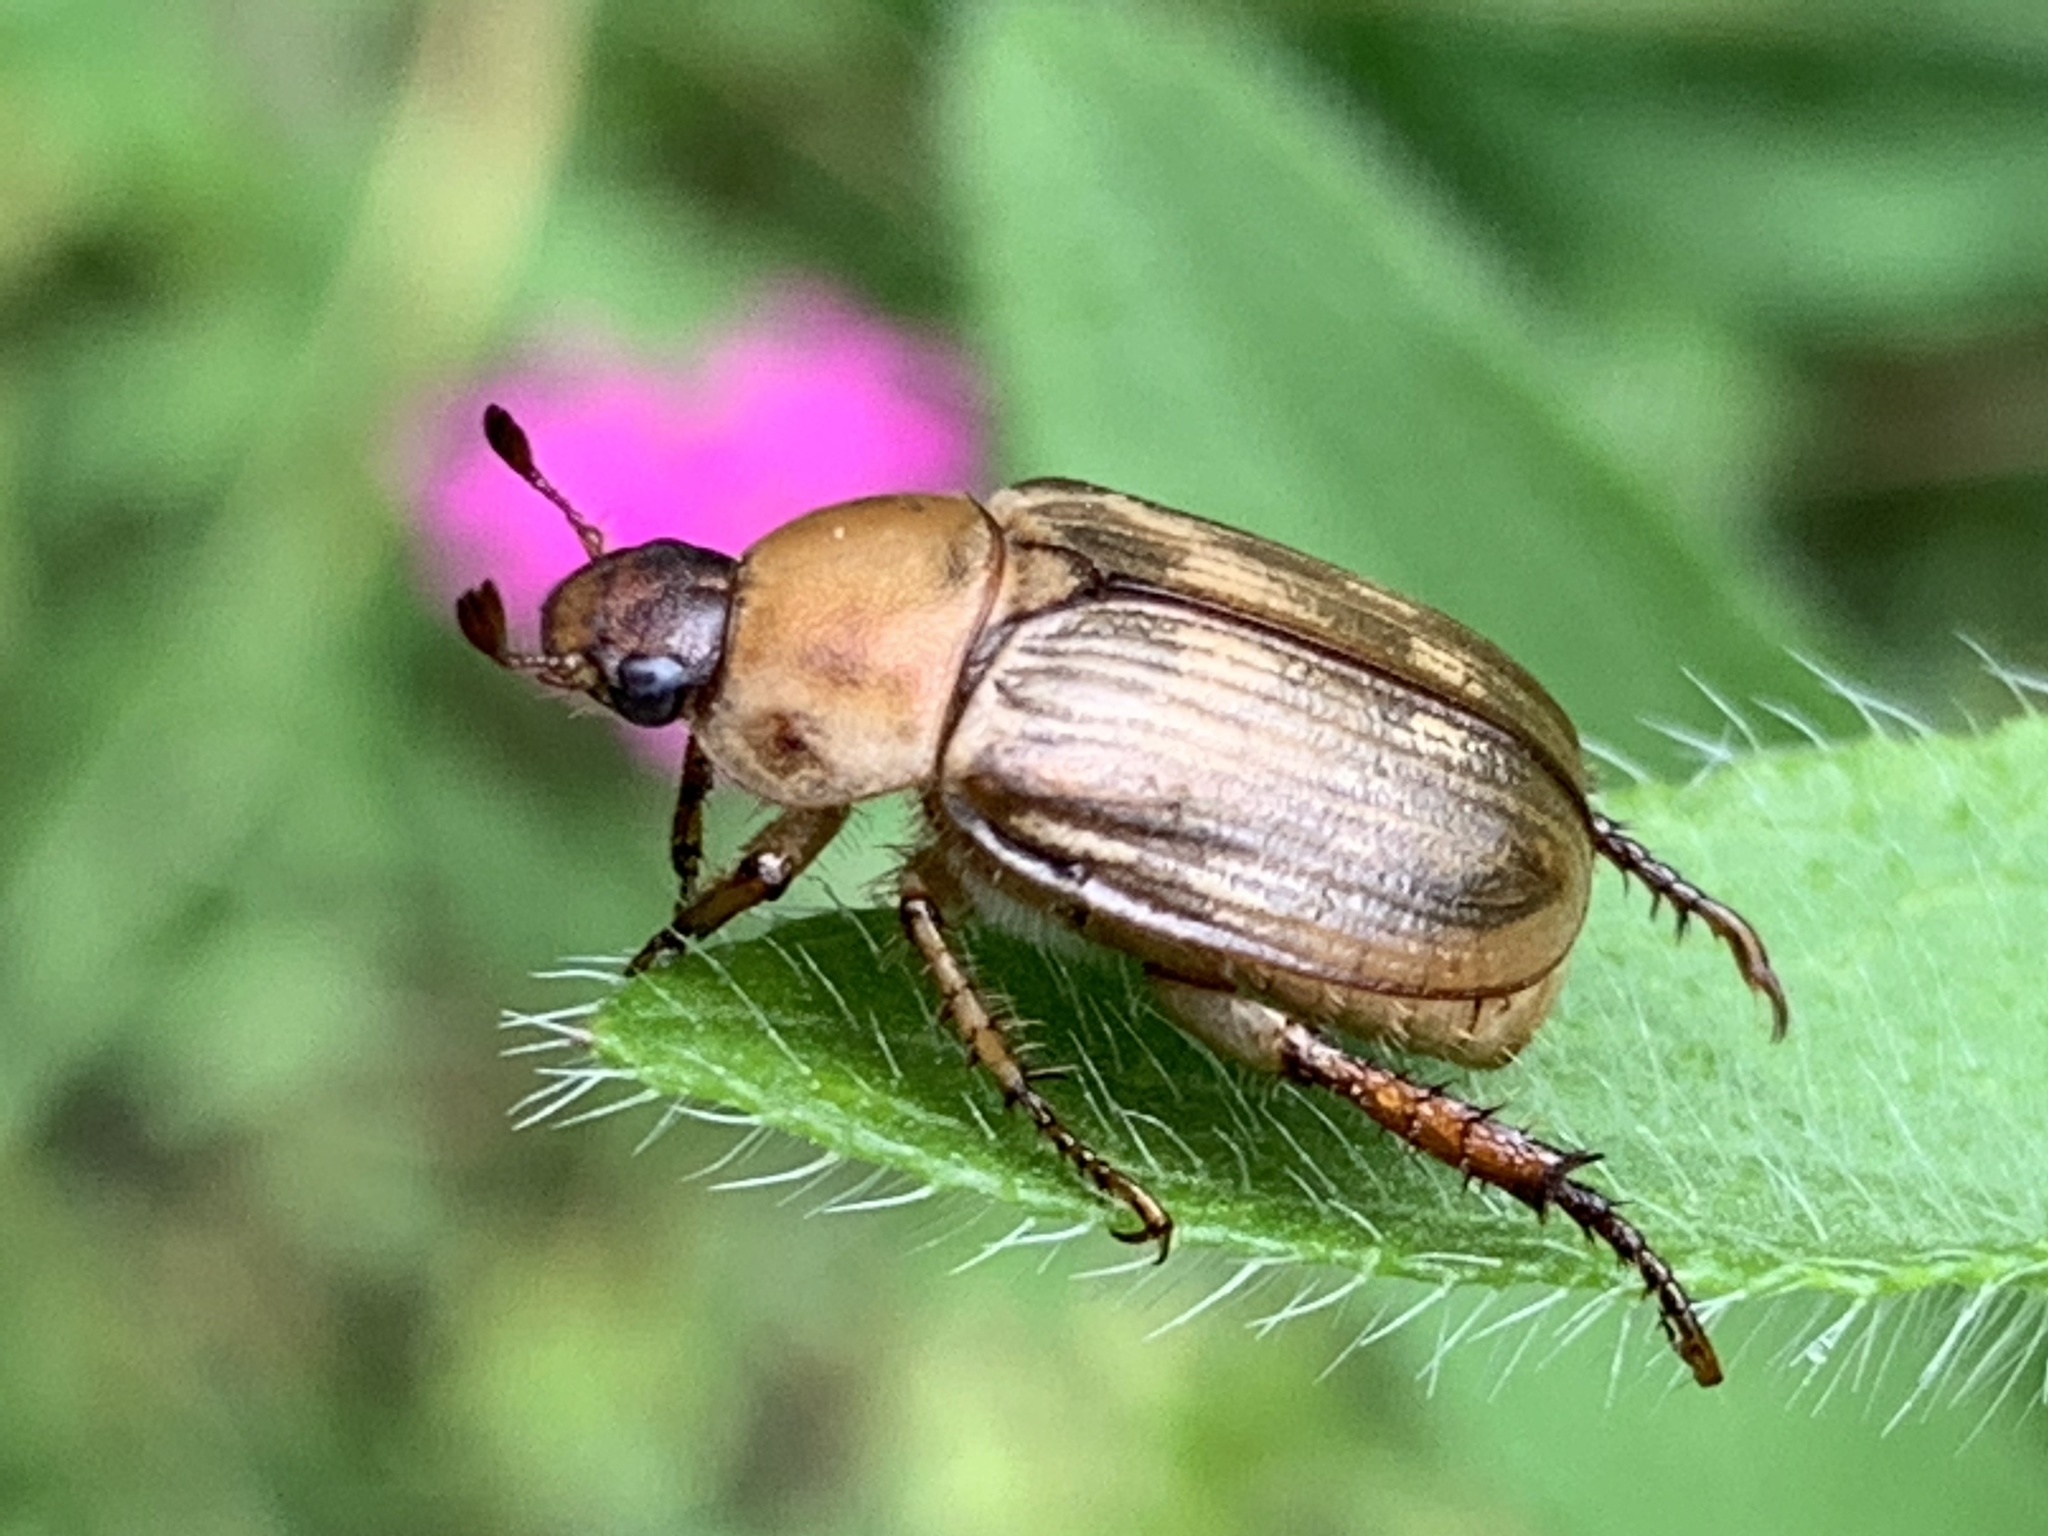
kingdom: Animalia
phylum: Arthropoda
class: Insecta
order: Coleoptera
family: Scarabaeidae
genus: Exomala
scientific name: Exomala orientalis
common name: Oriental beetle
